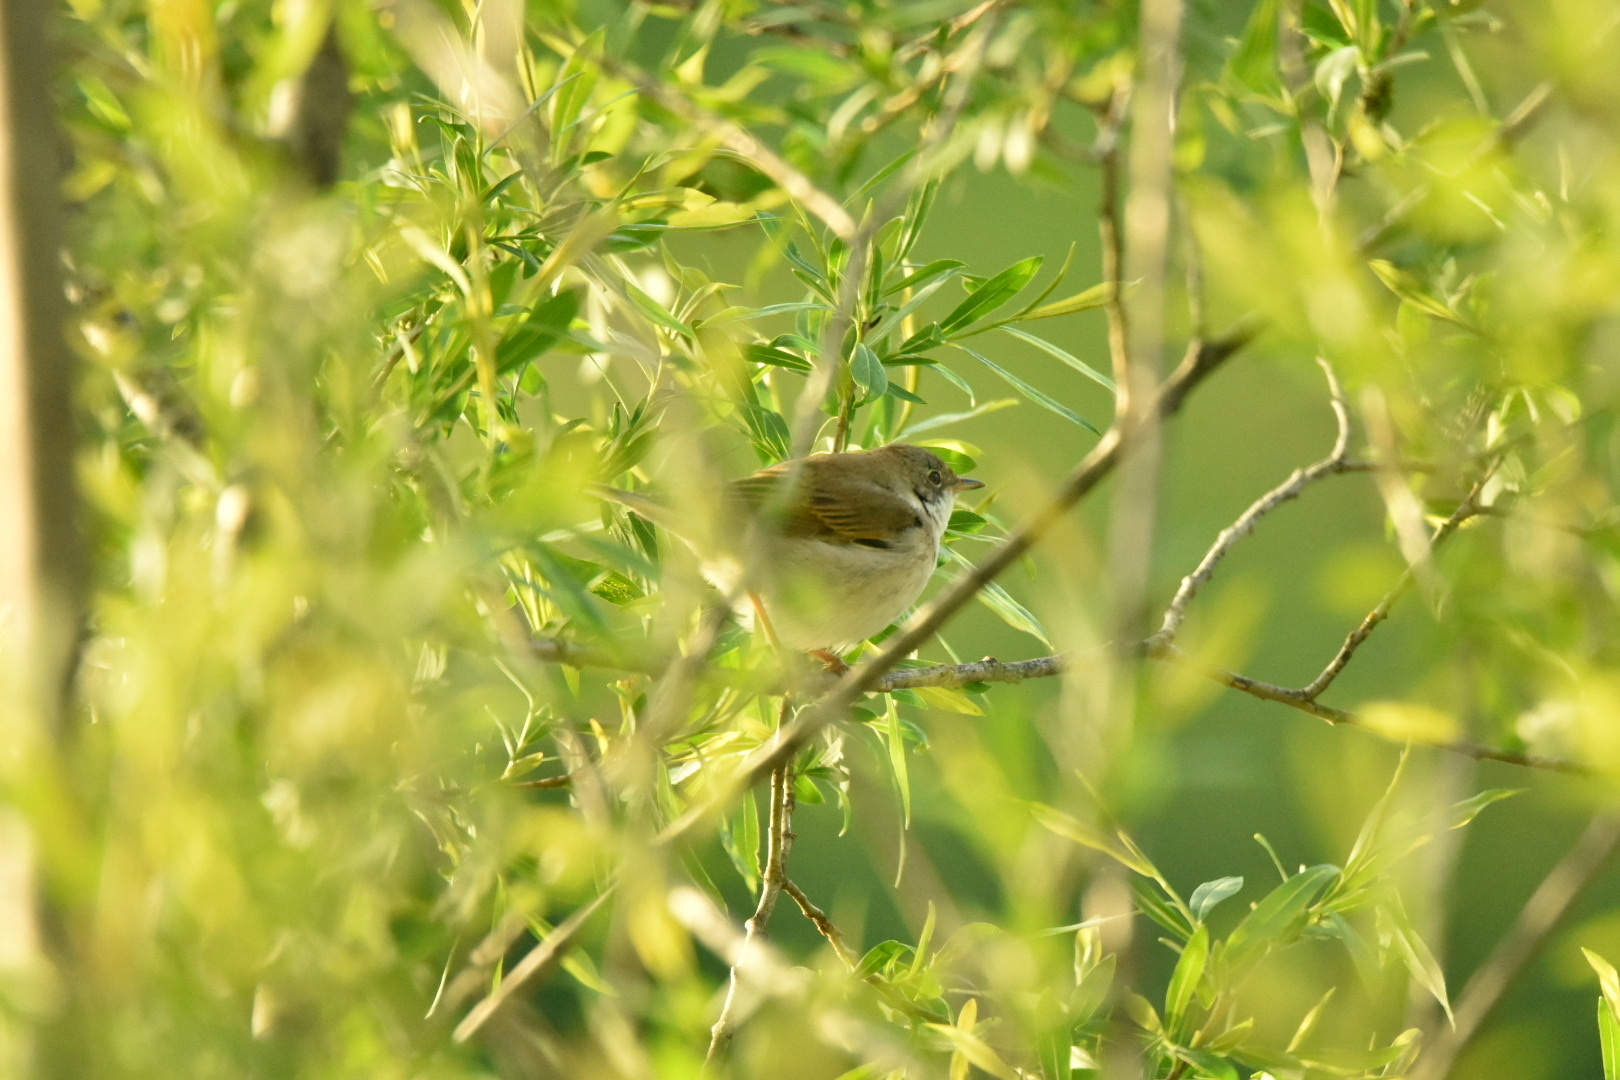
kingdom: Animalia
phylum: Chordata
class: Aves
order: Passeriformes
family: Sylviidae
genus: Sylvia
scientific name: Sylvia communis
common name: Common whitethroat
